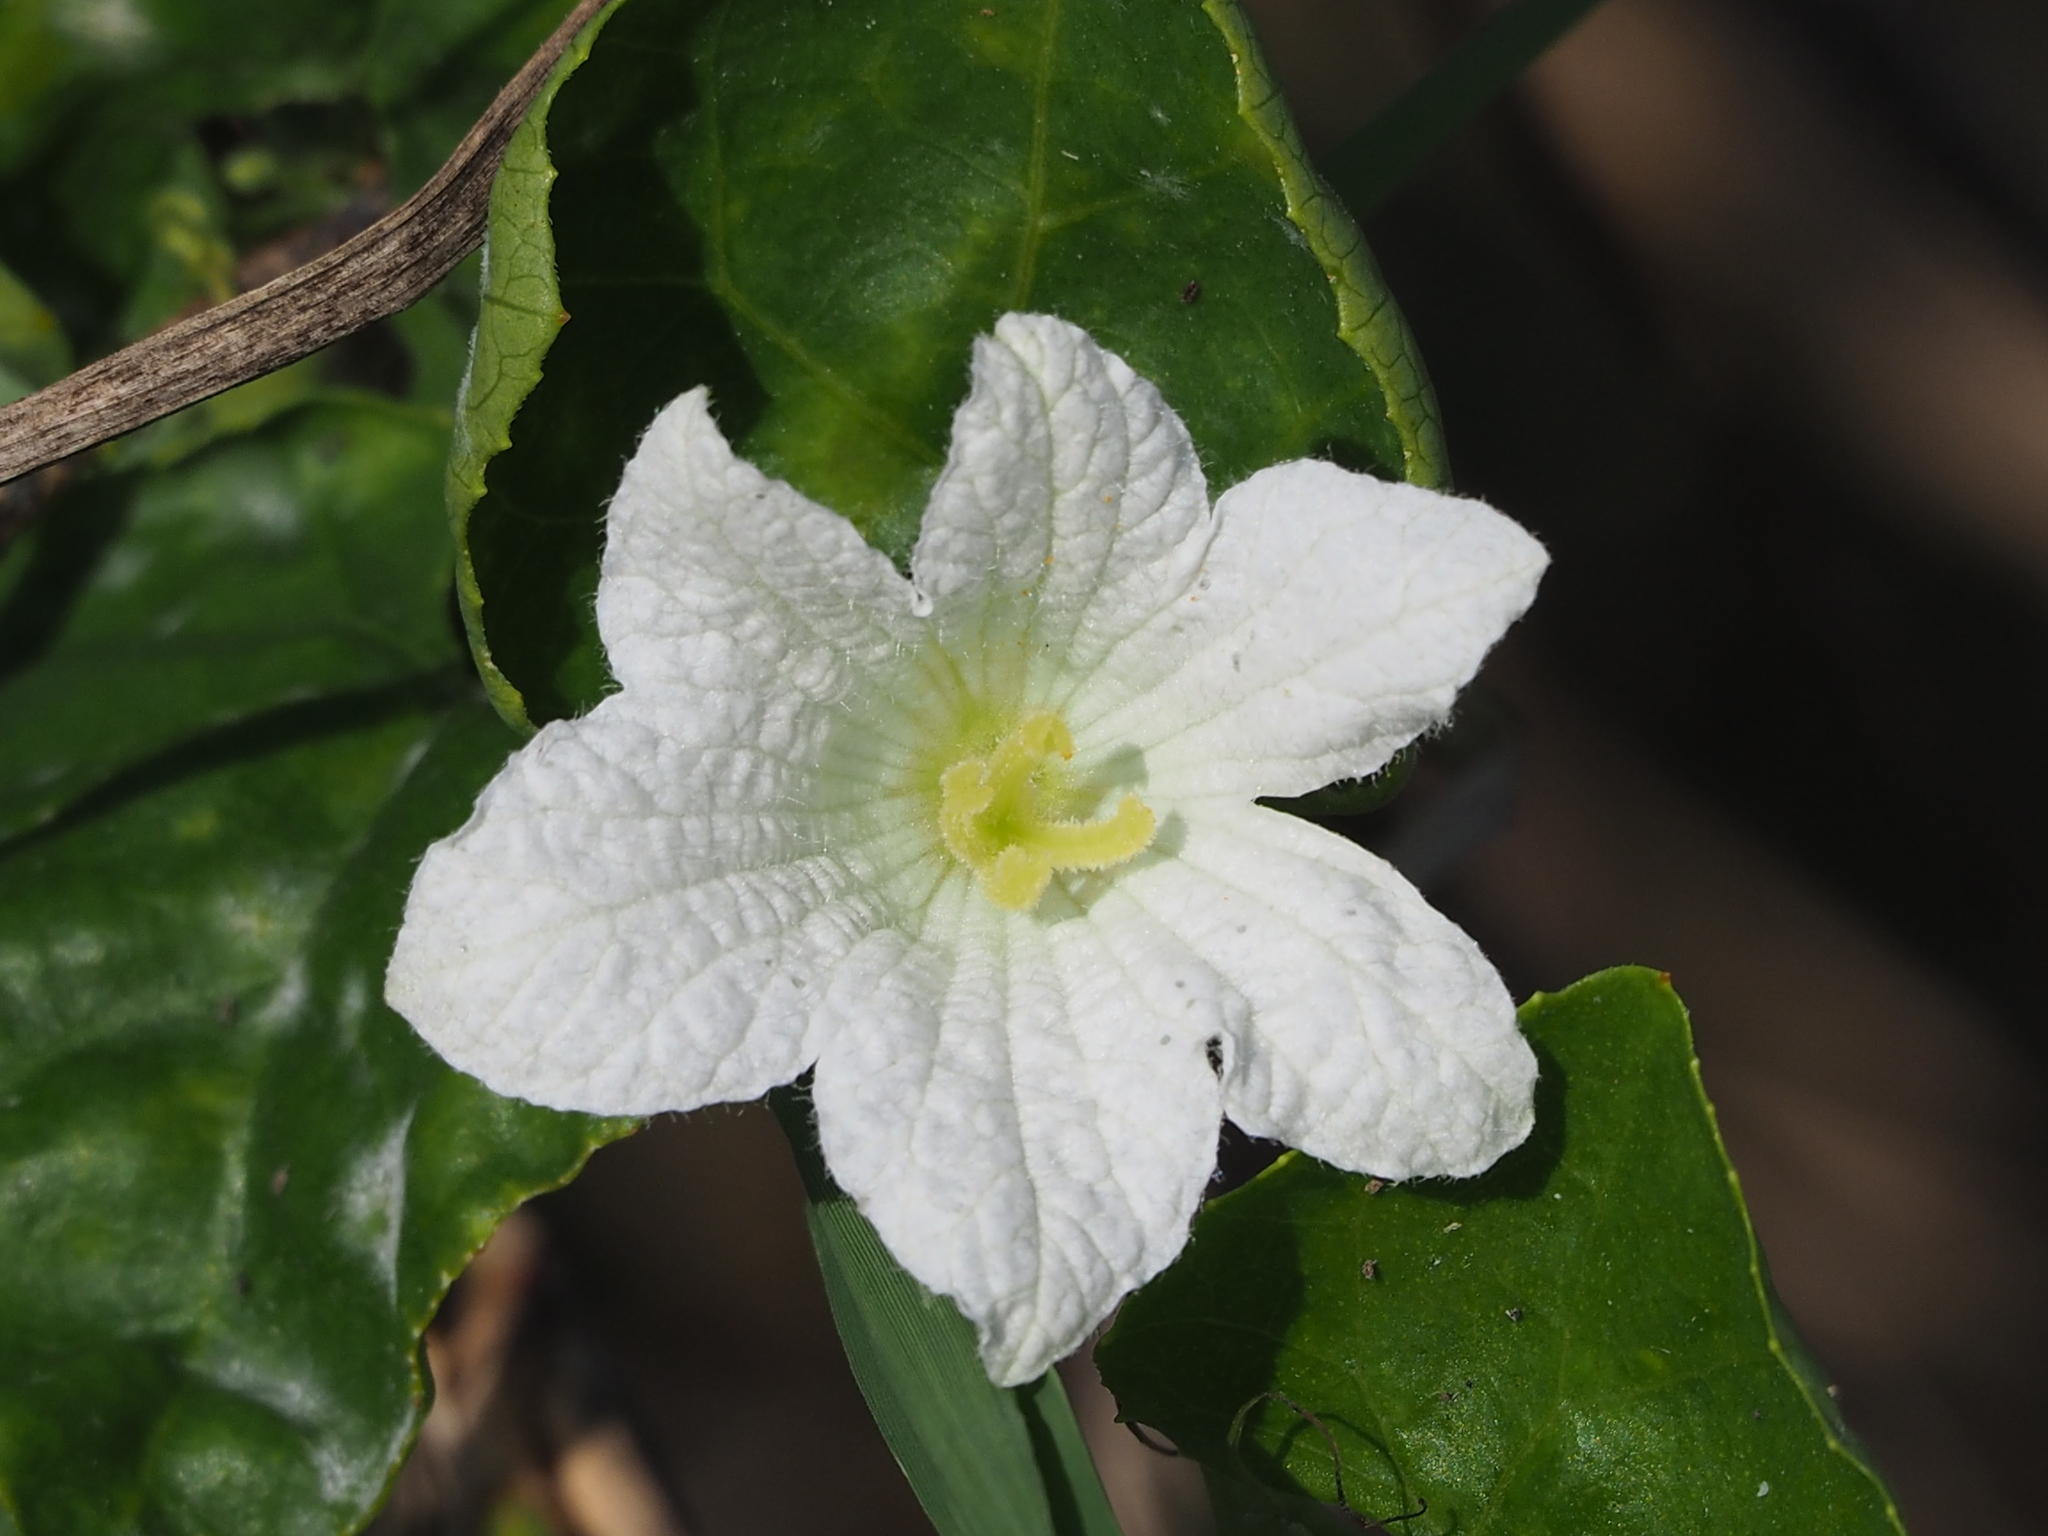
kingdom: Plantae
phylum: Tracheophyta
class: Magnoliopsida
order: Cucurbitales
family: Cucurbitaceae
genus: Coccinia
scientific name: Coccinia grandis
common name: Ivy gourd
